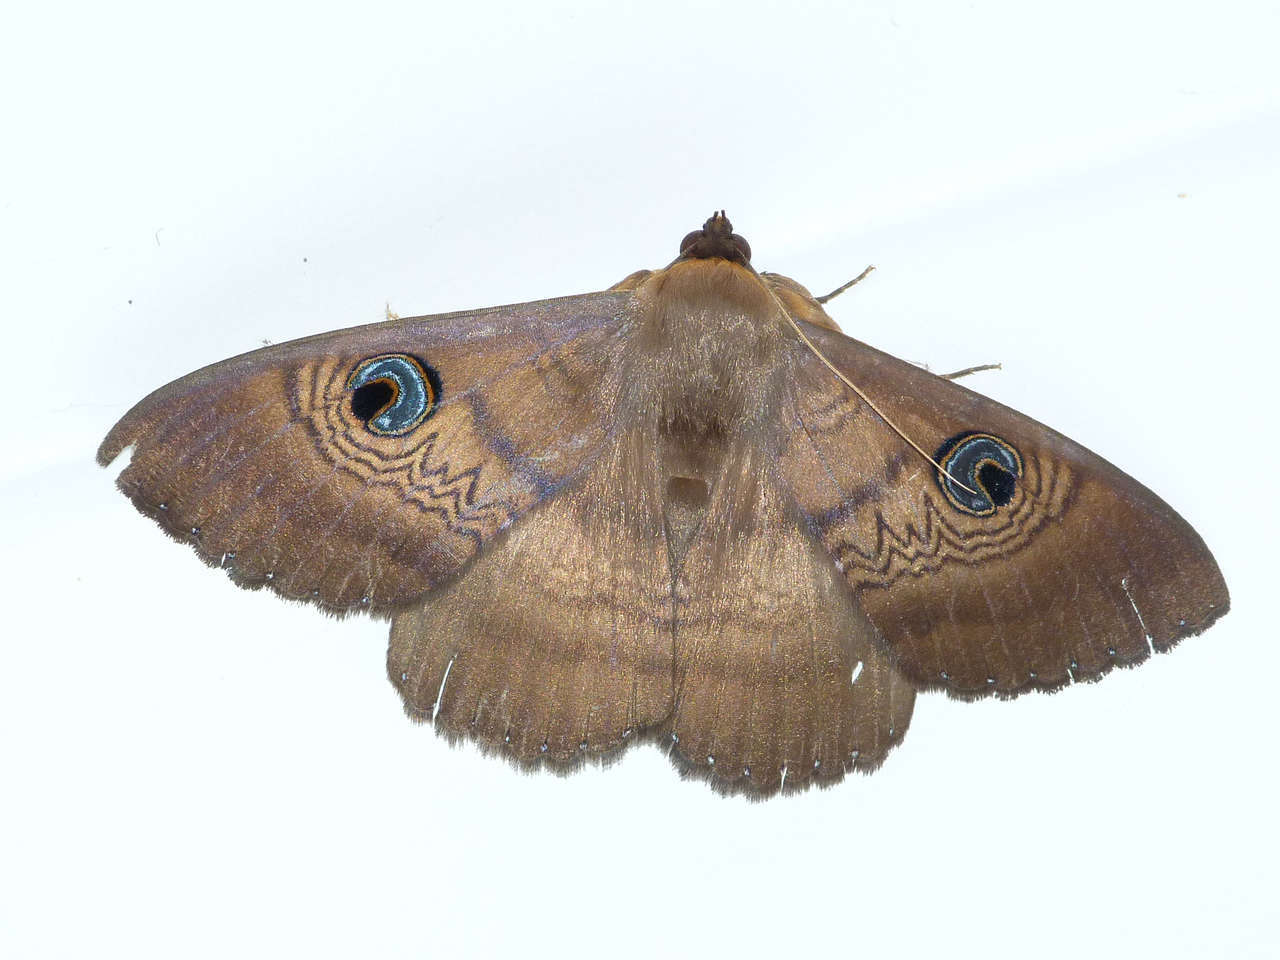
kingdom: Animalia
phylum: Arthropoda
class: Insecta
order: Lepidoptera
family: Erebidae
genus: Dasypodia
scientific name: Dasypodia selenophora
